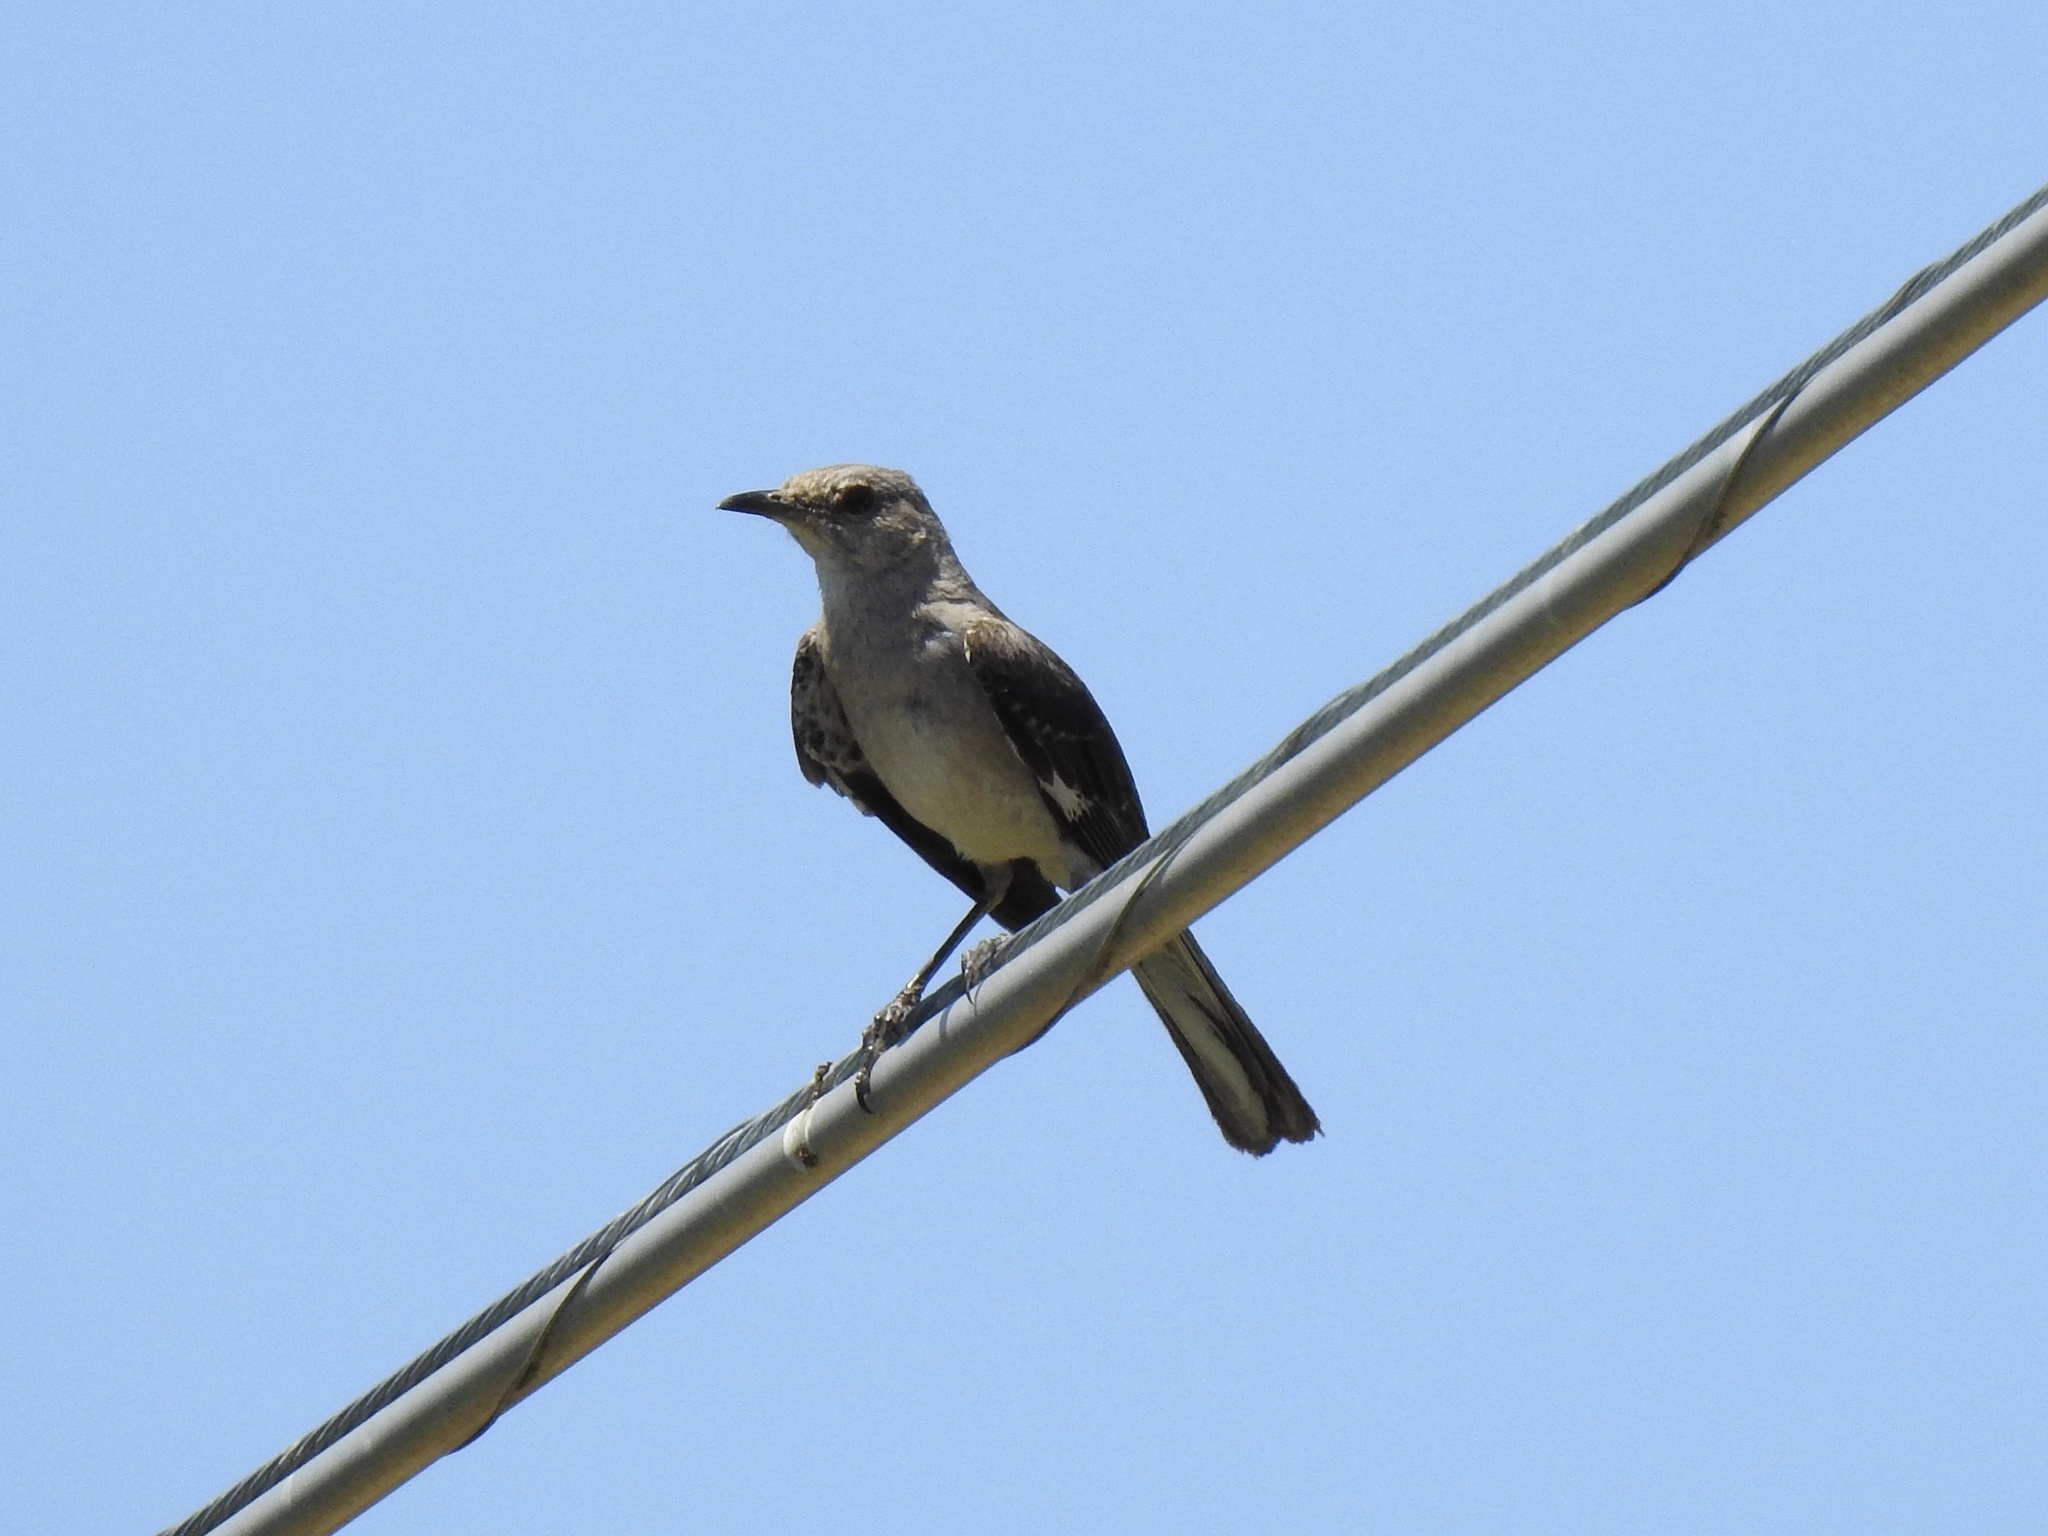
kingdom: Animalia
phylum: Chordata
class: Aves
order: Passeriformes
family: Mimidae
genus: Mimus
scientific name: Mimus polyglottos
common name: Northern mockingbird
